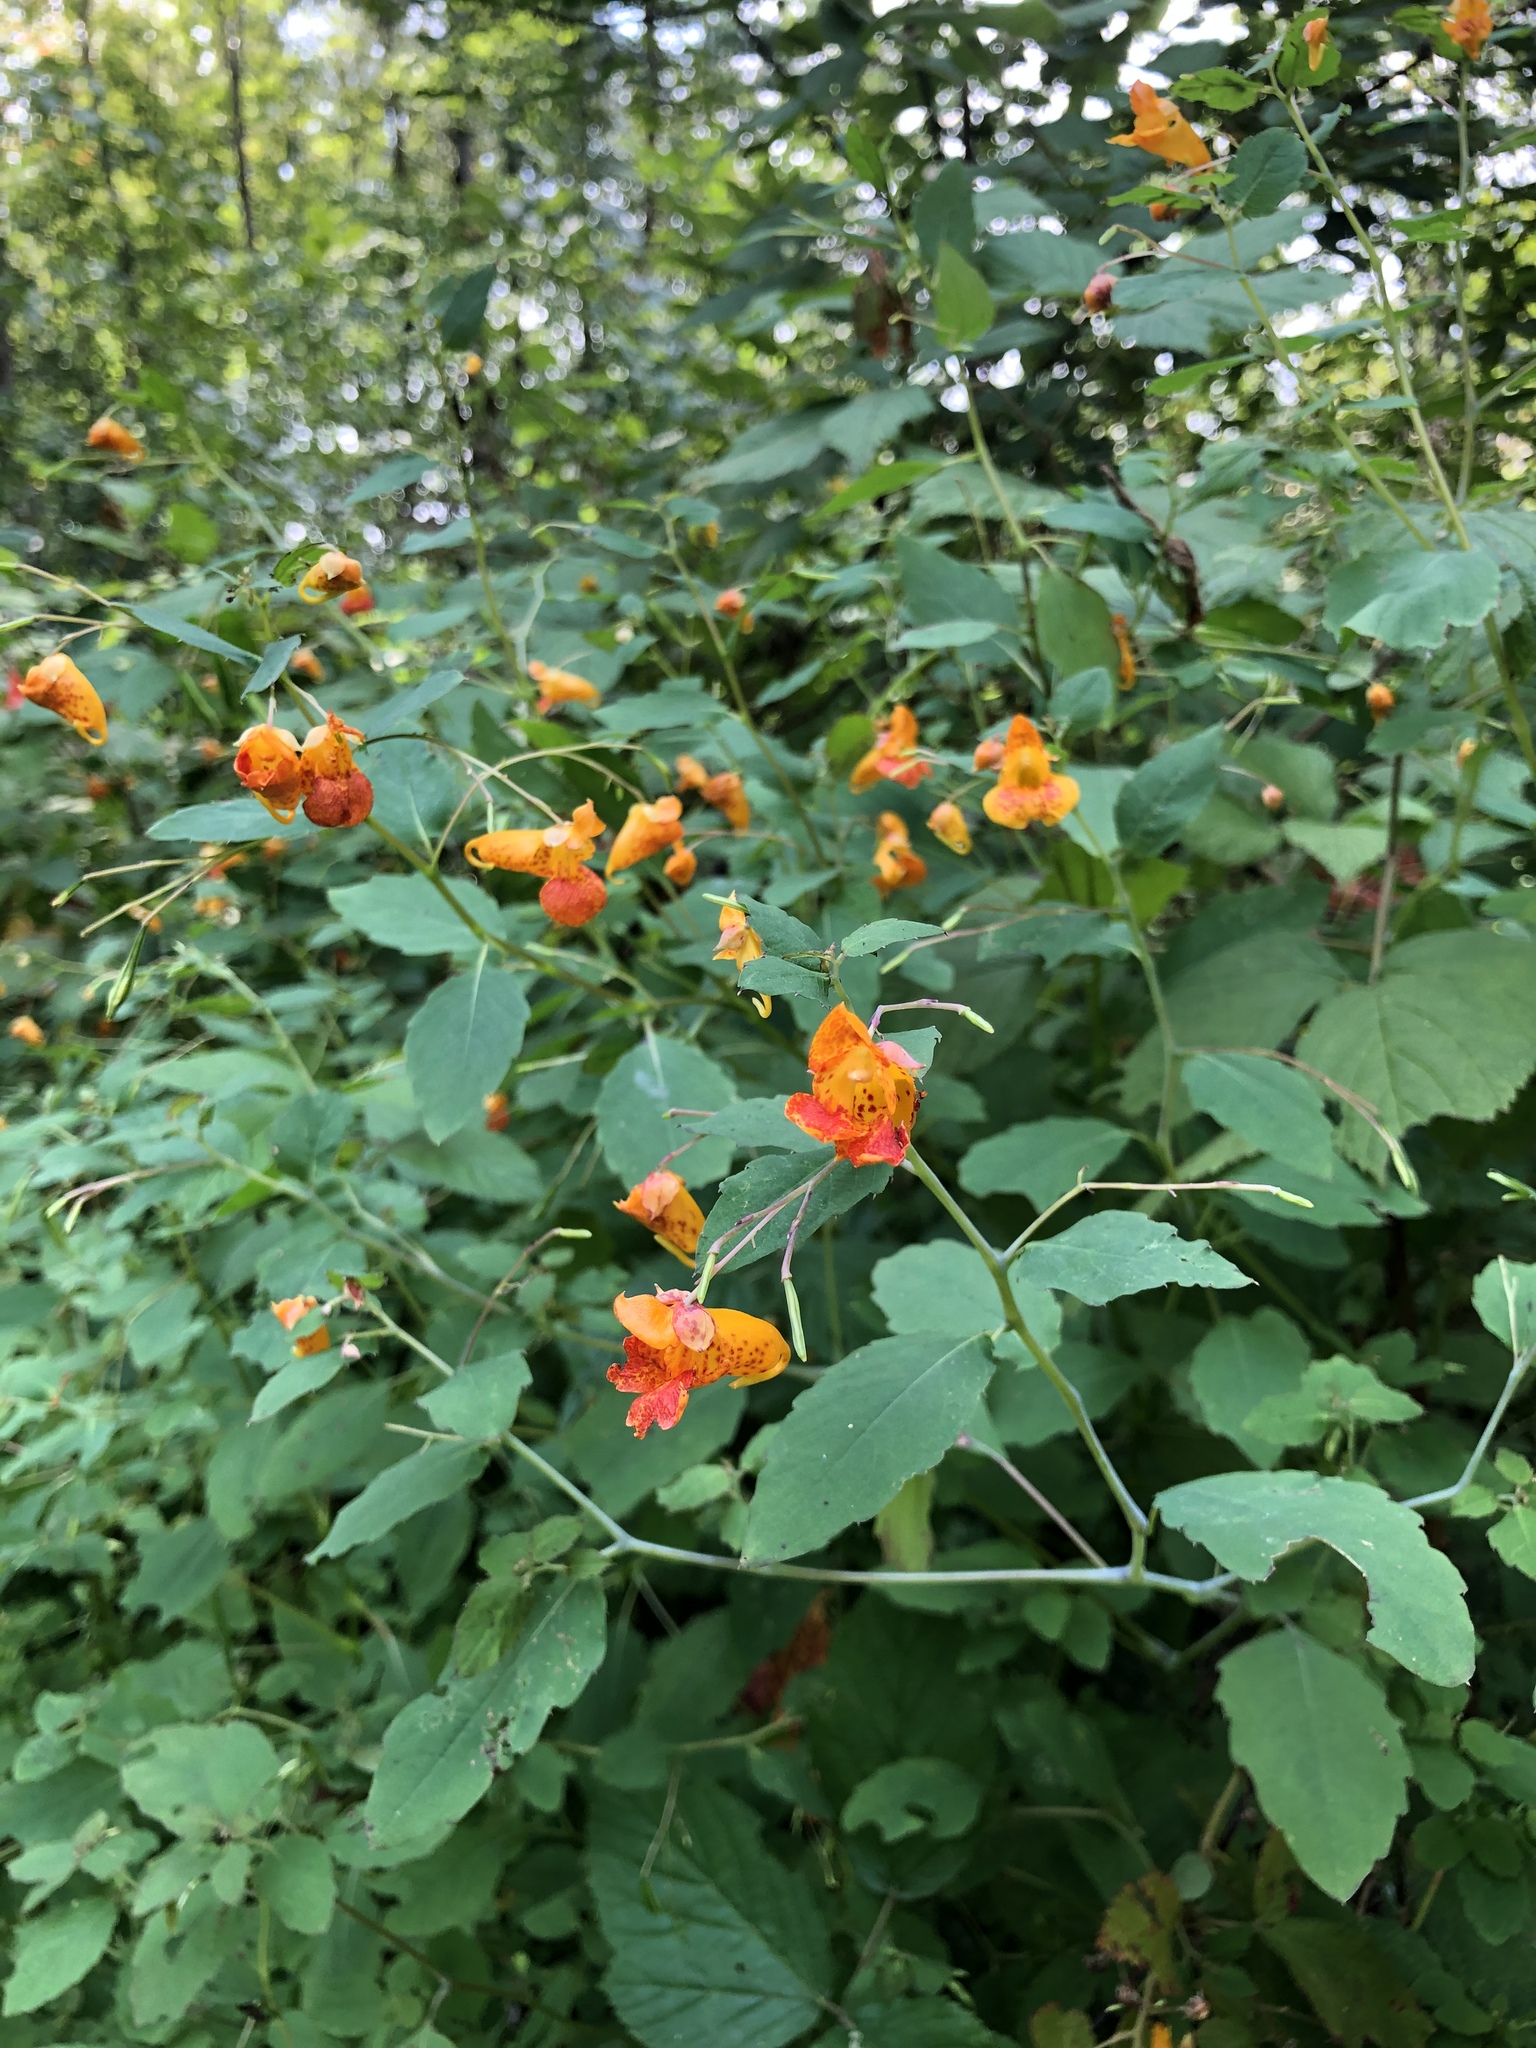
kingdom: Plantae
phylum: Tracheophyta
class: Magnoliopsida
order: Ericales
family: Balsaminaceae
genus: Impatiens
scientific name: Impatiens capensis
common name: Orange balsam
